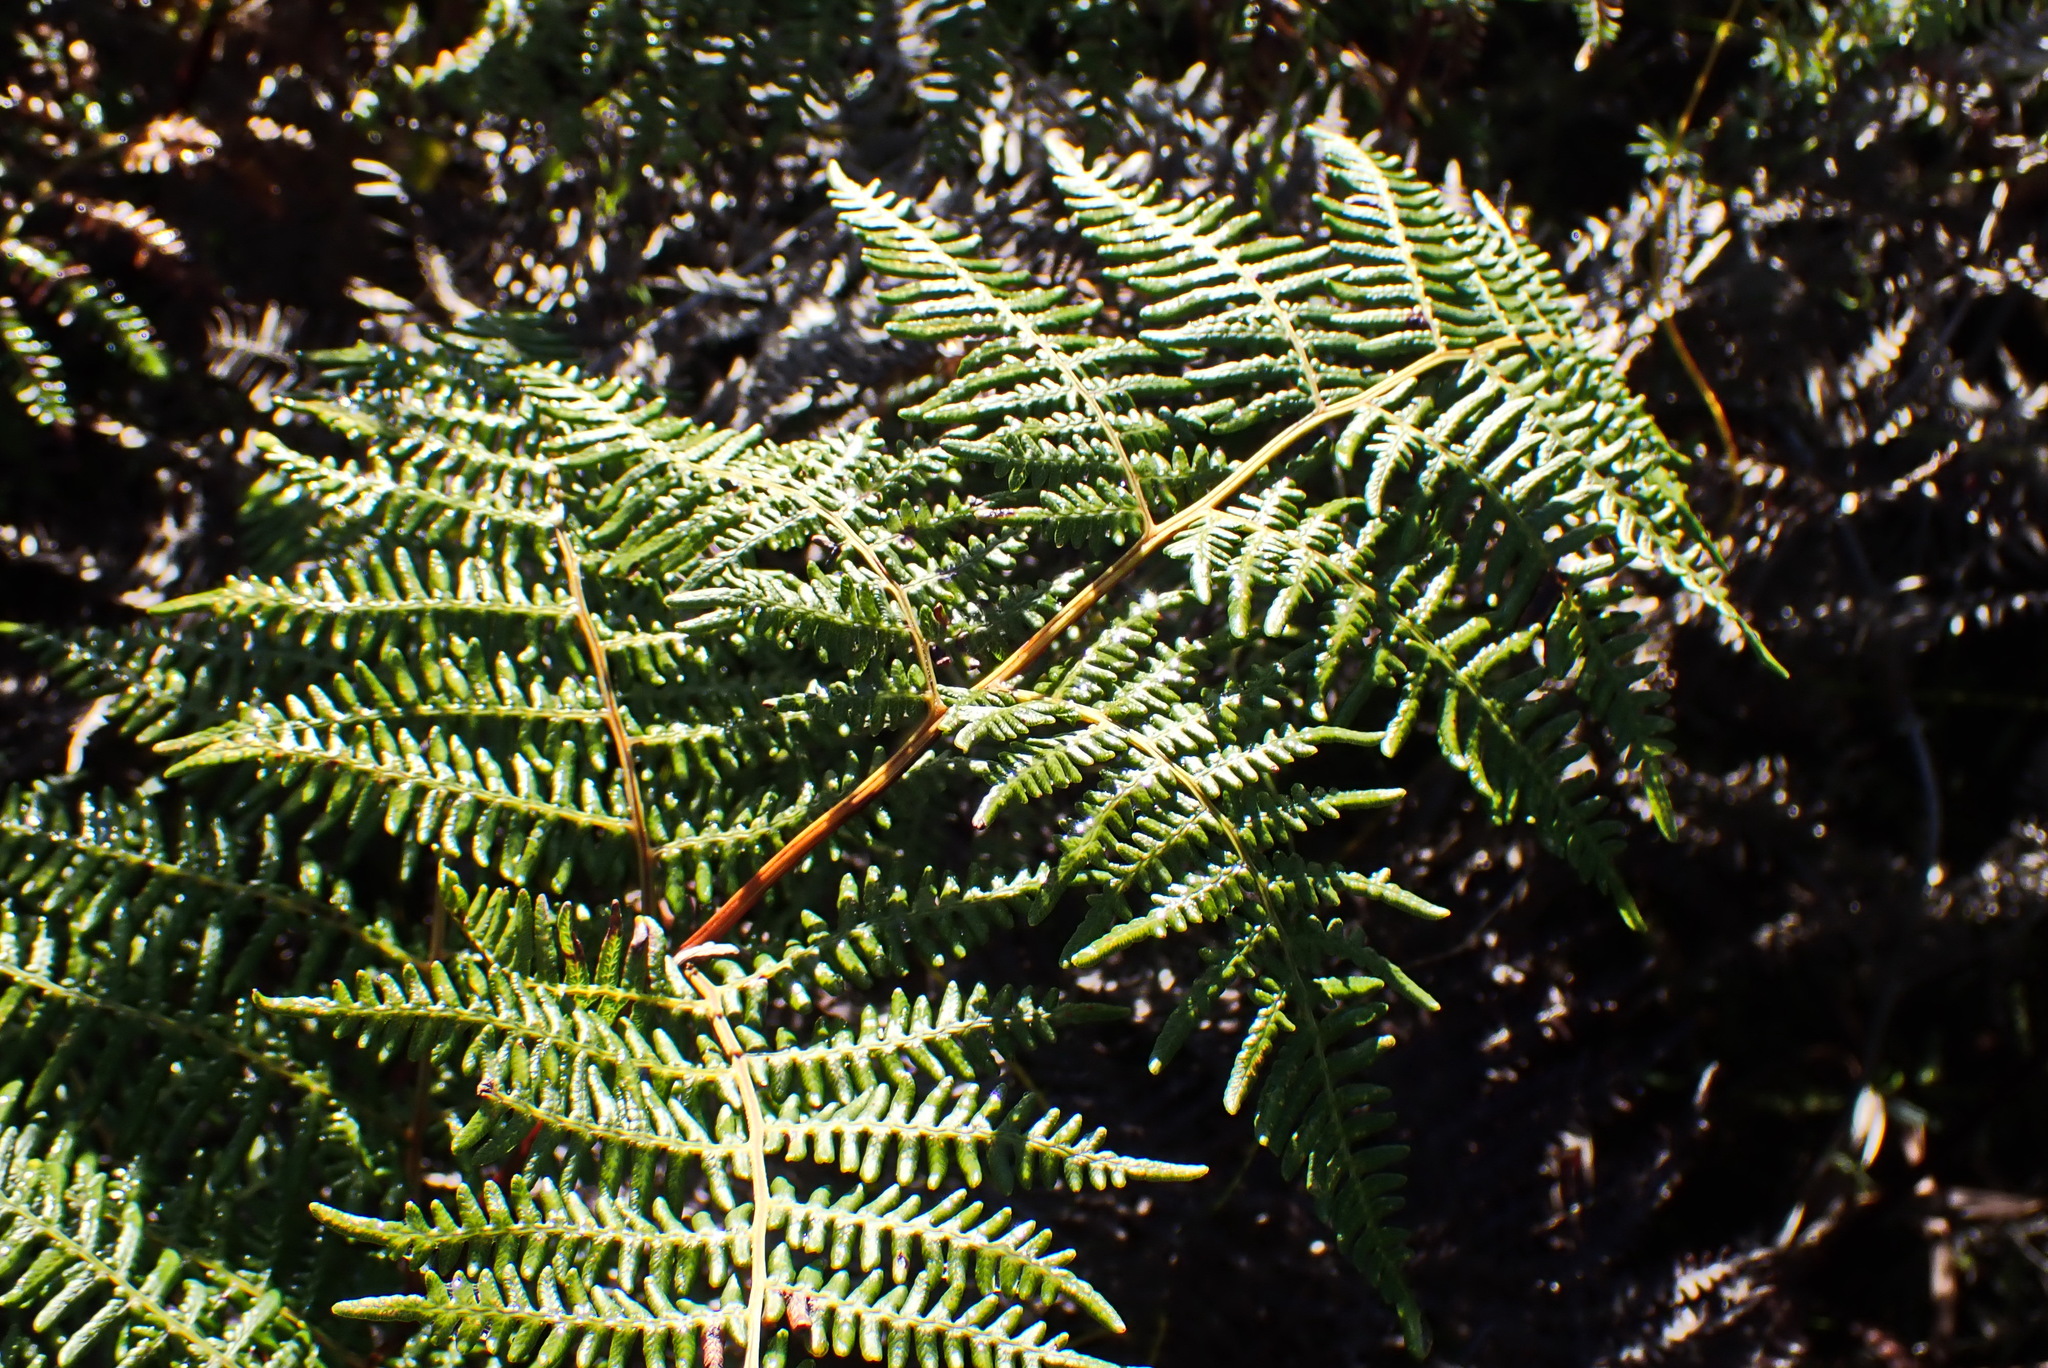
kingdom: Plantae
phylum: Tracheophyta
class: Polypodiopsida
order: Polypodiales
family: Dennstaedtiaceae
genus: Pteridium
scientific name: Pteridium aquilinum
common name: Bracken
